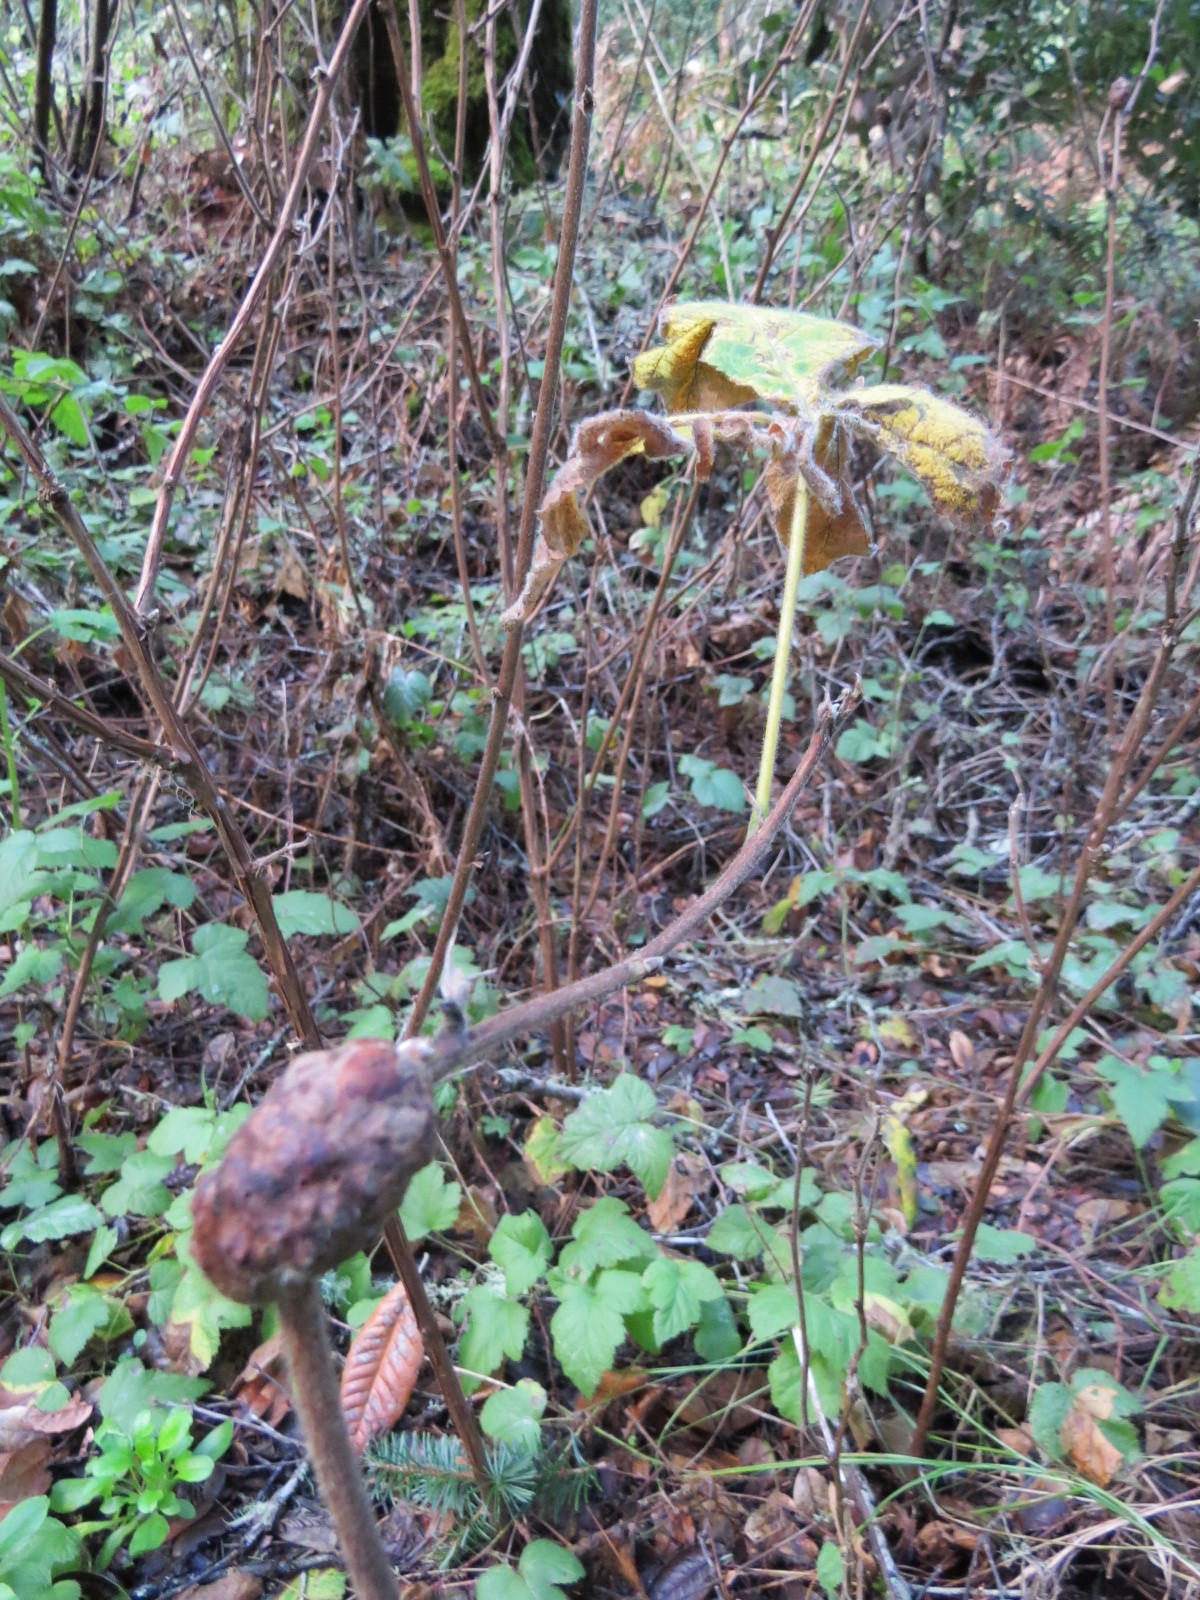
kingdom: Animalia
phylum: Arthropoda
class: Insecta
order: Hymenoptera
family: Cynipidae
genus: Diastrophus
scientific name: Diastrophus
